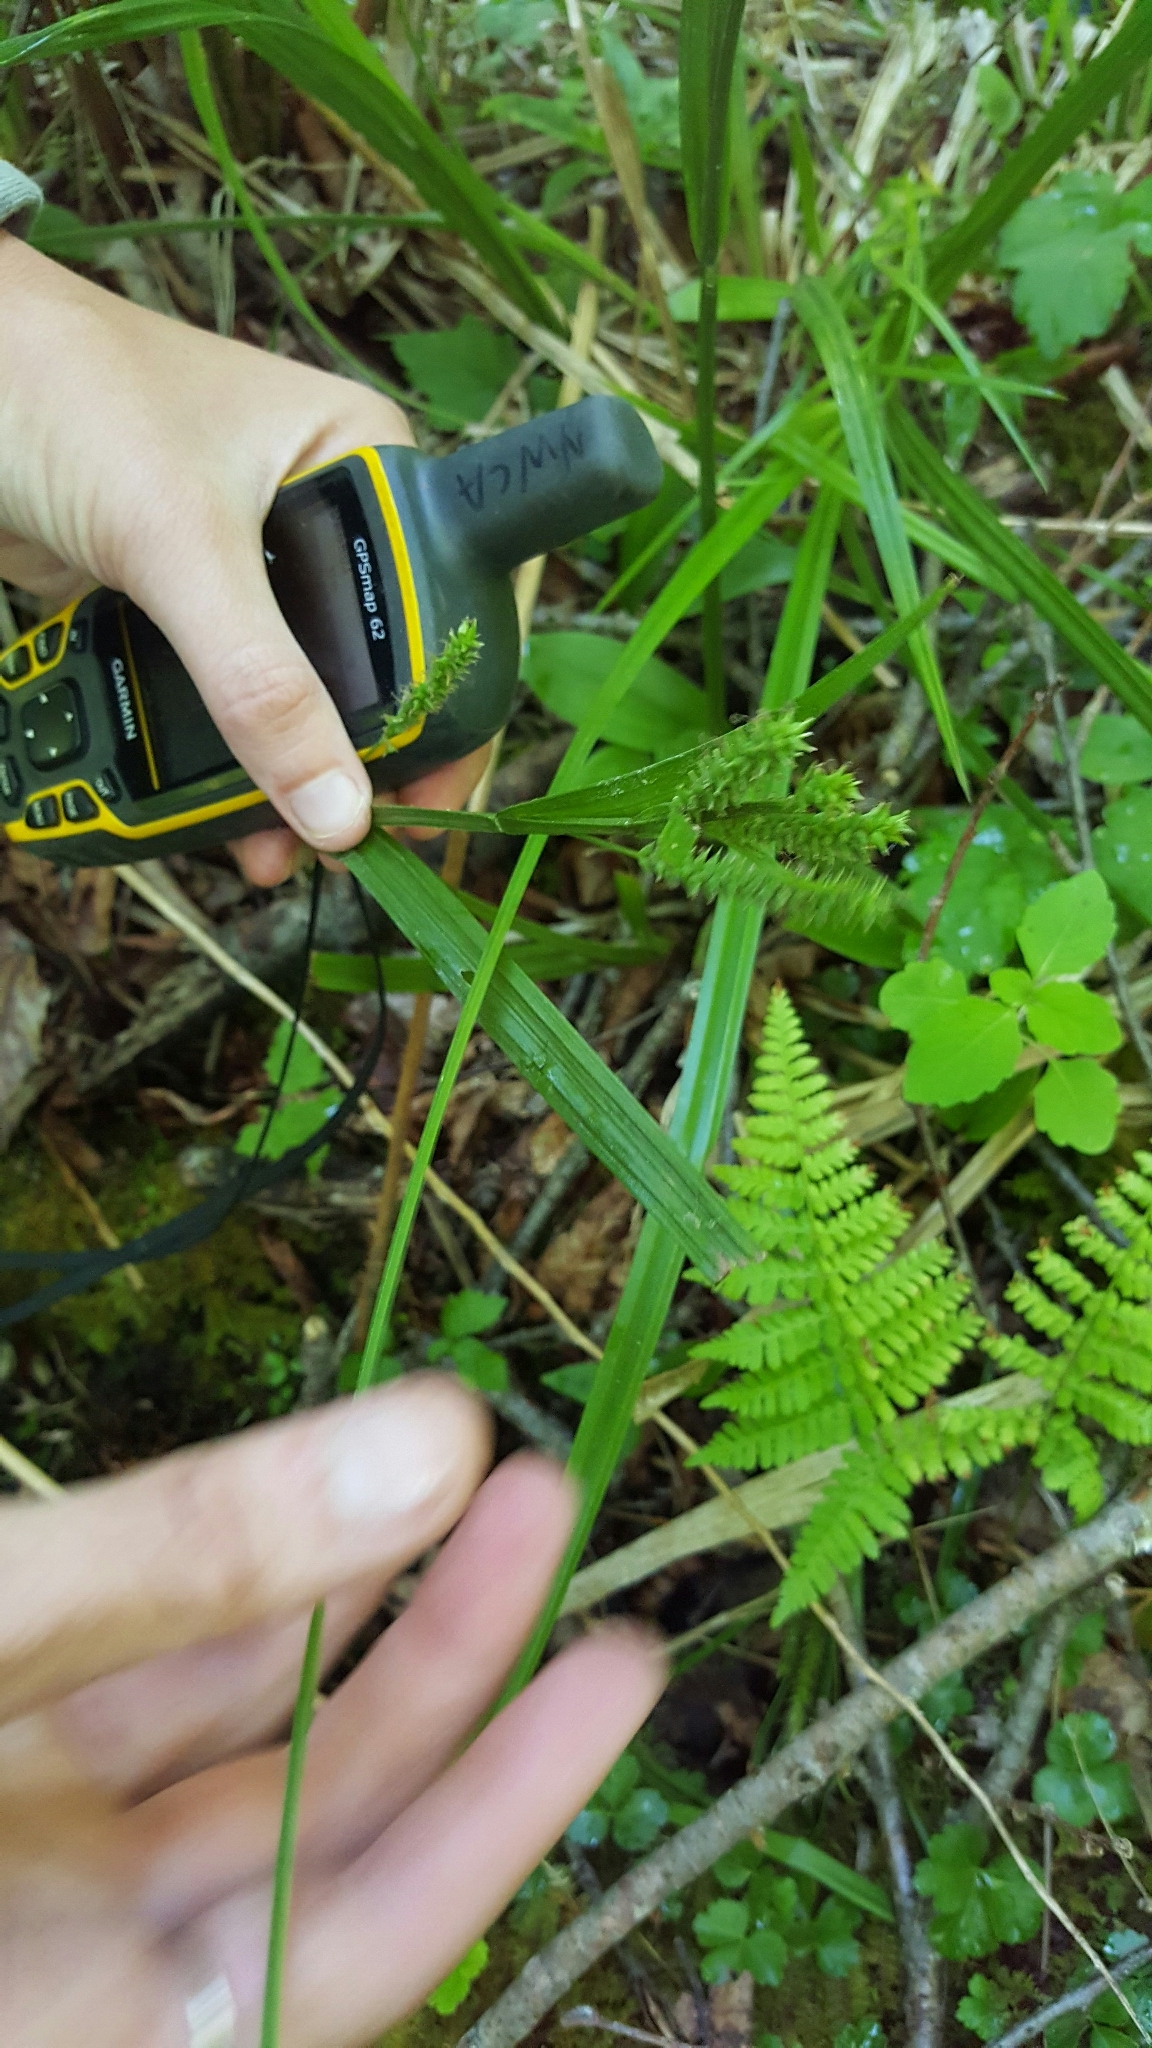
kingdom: Plantae
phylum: Tracheophyta
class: Liliopsida
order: Poales
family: Cyperaceae
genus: Carex
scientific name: Carex scabrata
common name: Eastern rough sedge
